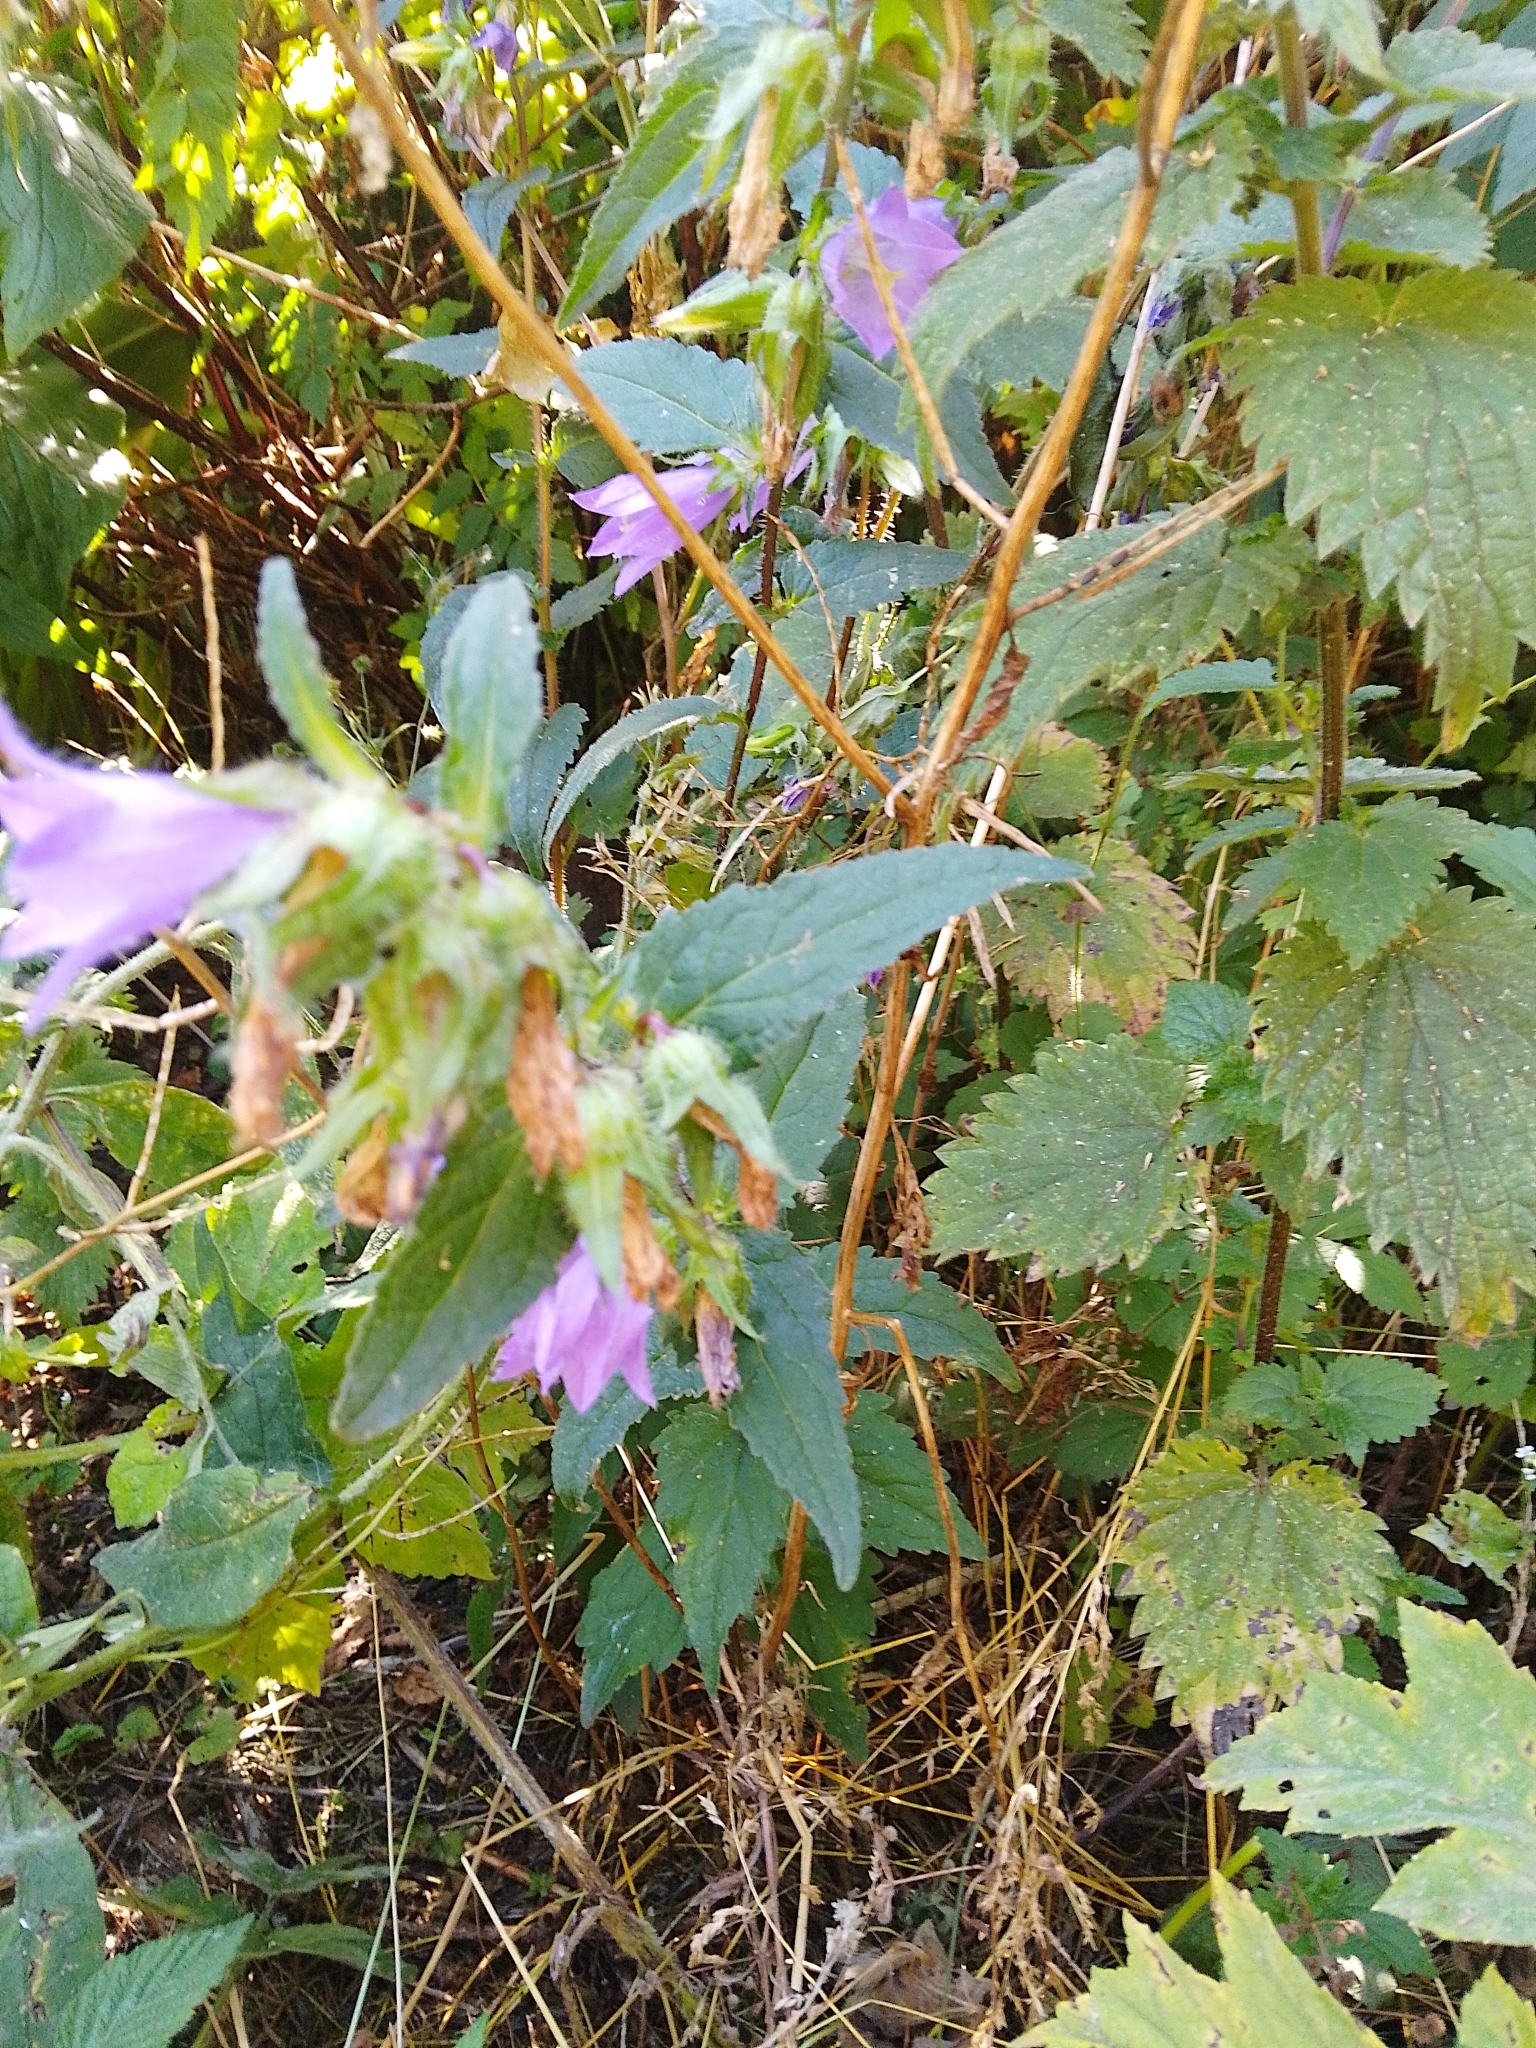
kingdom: Plantae
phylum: Tracheophyta
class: Magnoliopsida
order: Asterales
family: Campanulaceae
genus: Campanula
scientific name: Campanula trachelium
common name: Nettle-leaved bellflower
